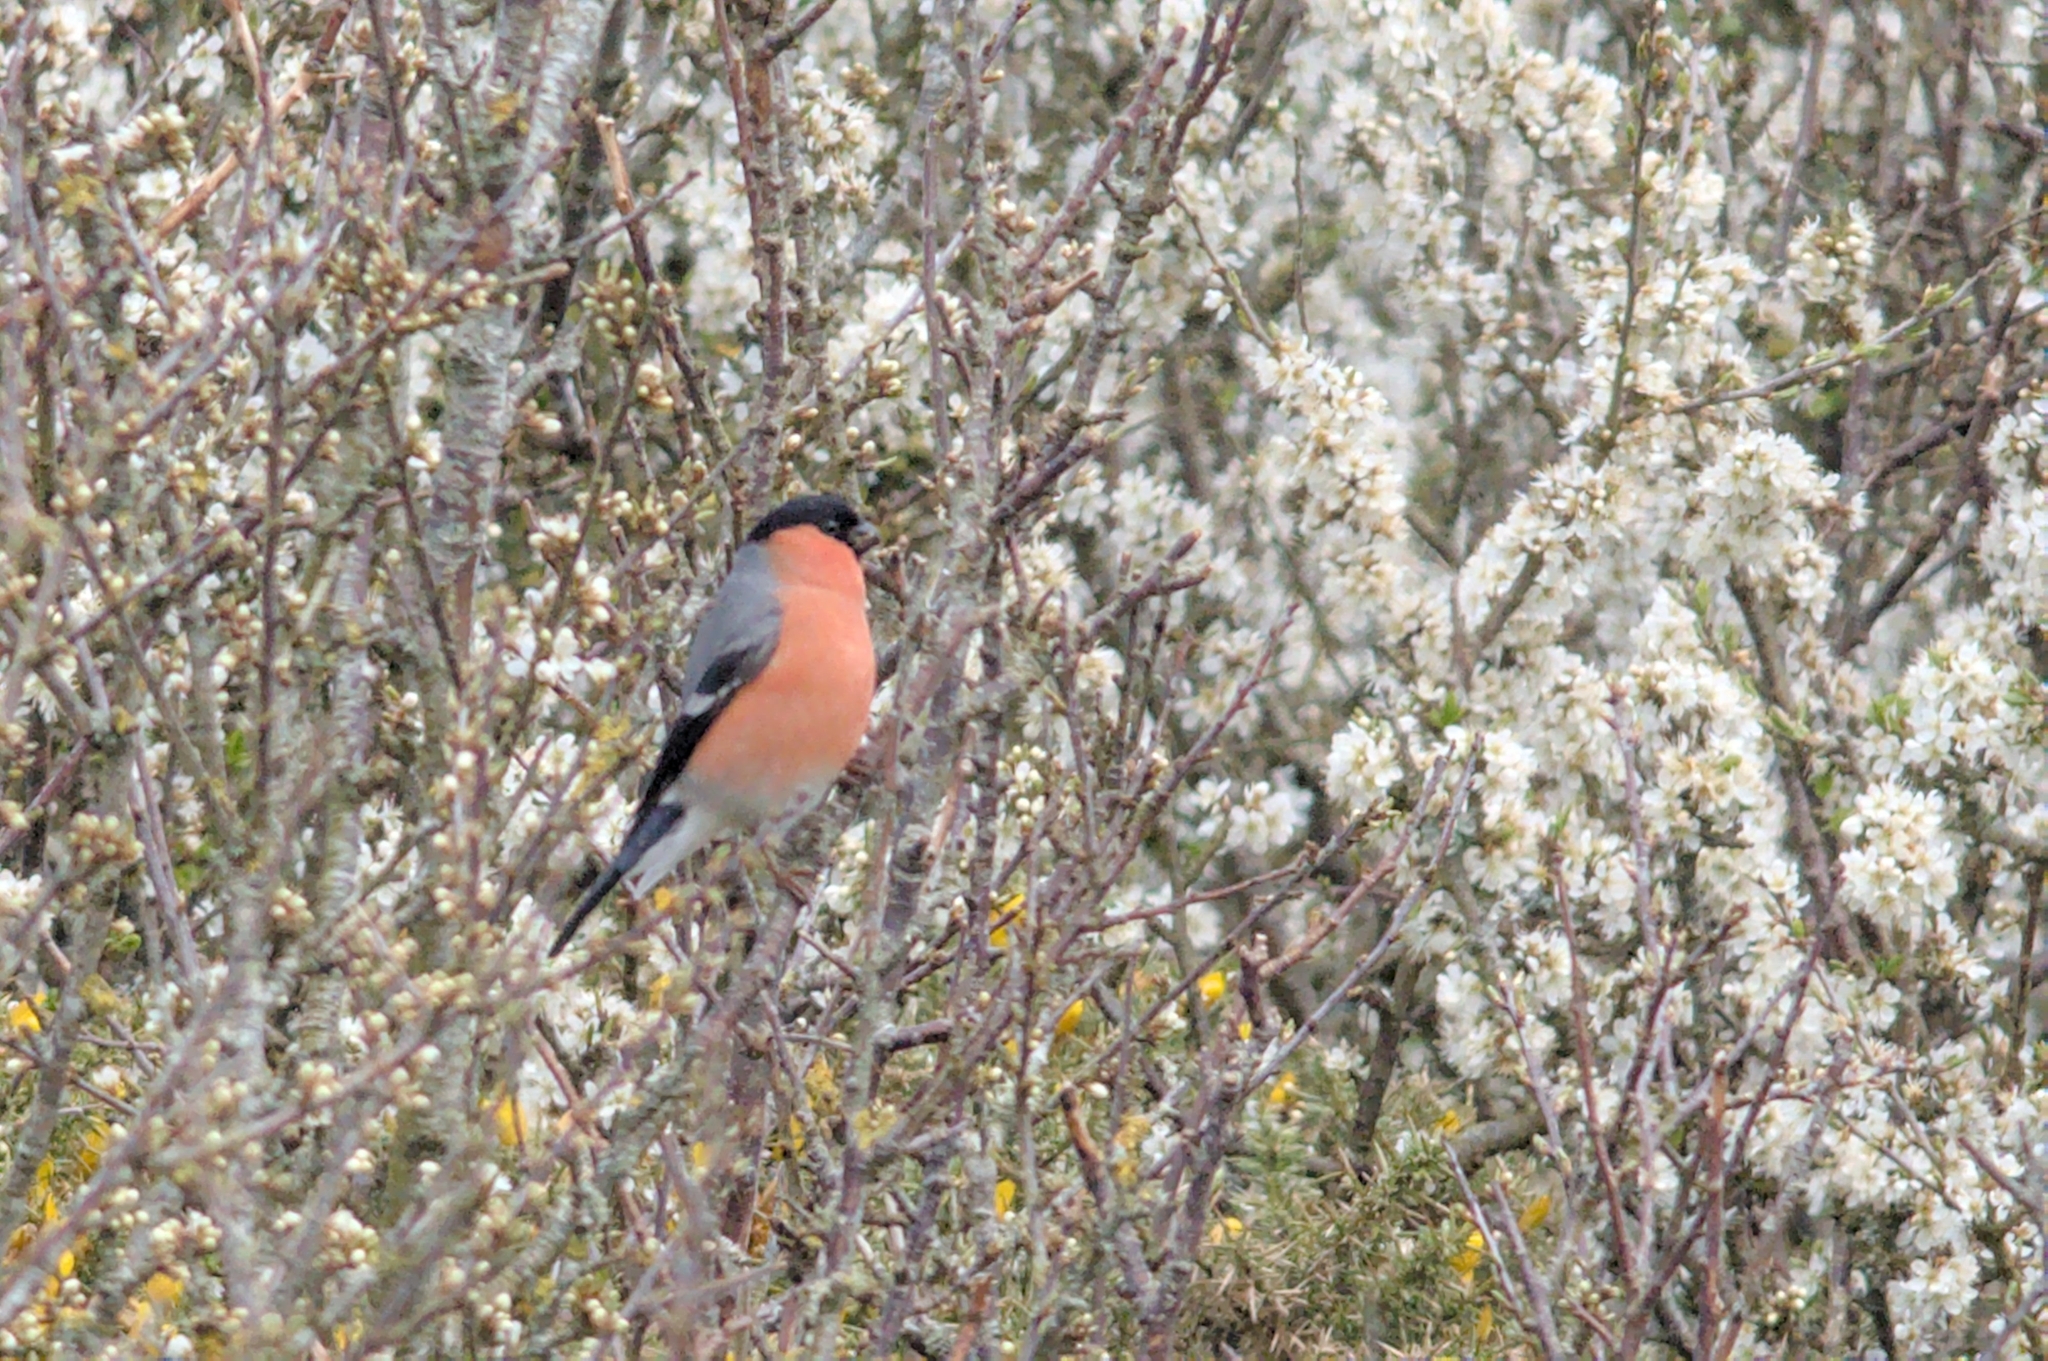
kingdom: Animalia
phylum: Chordata
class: Aves
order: Passeriformes
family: Fringillidae
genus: Pyrrhula
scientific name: Pyrrhula pyrrhula
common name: Eurasian bullfinch
